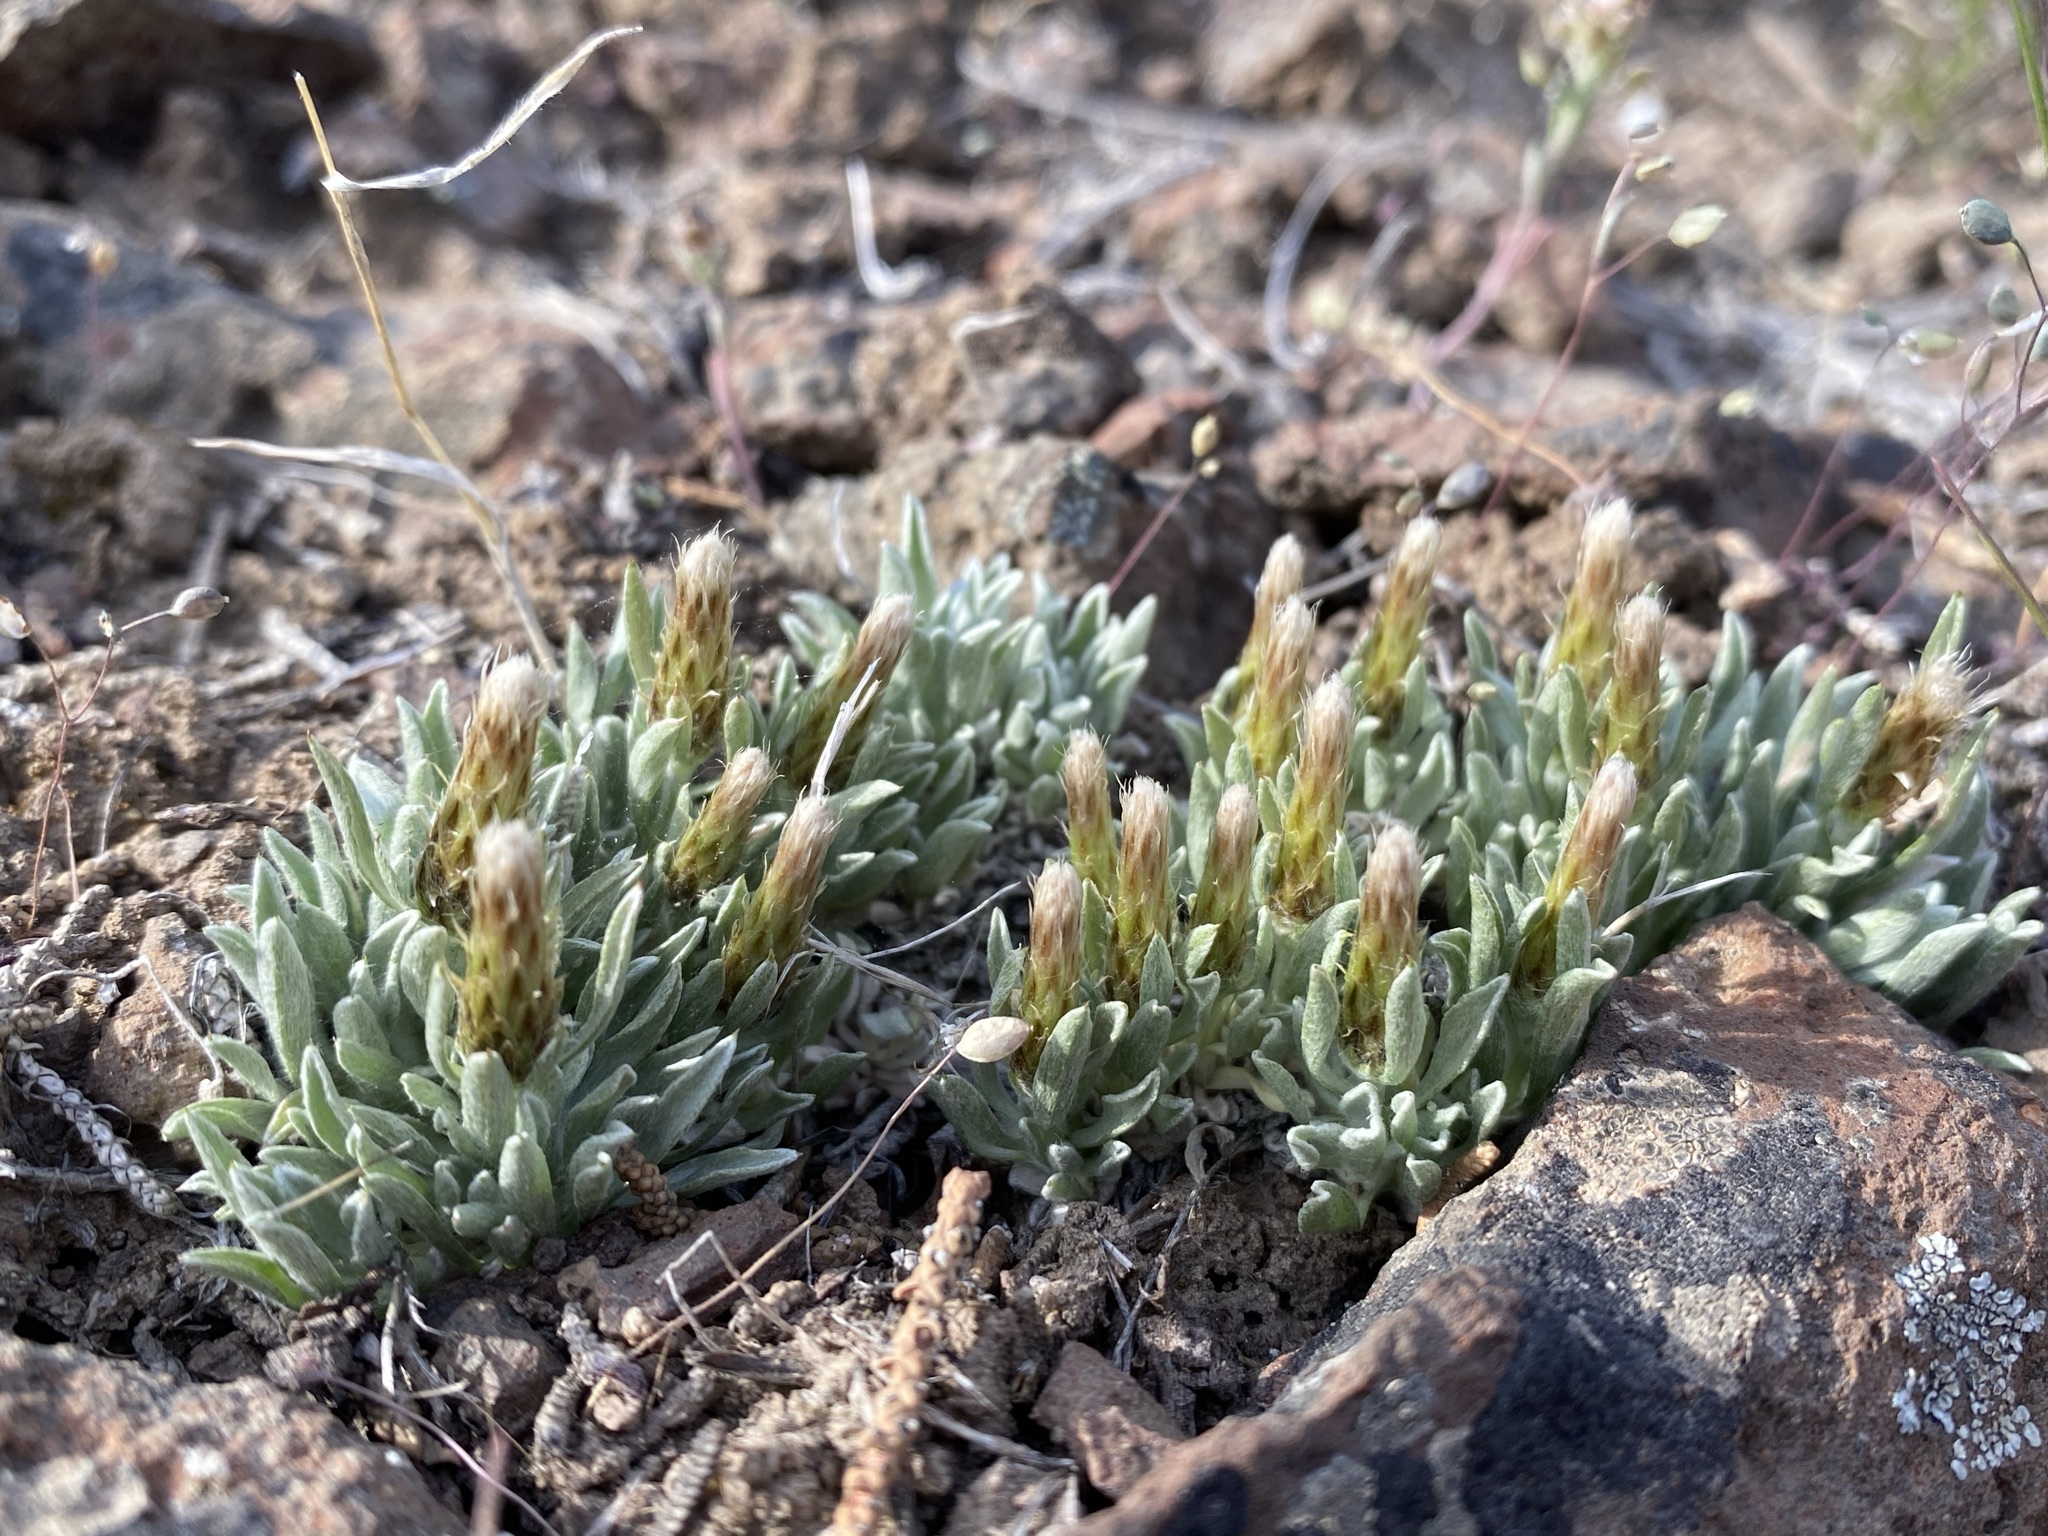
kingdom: Plantae
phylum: Tracheophyta
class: Magnoliopsida
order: Asterales
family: Asteraceae
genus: Antennaria
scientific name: Antennaria dimorpha
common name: Cushion pussytoes
